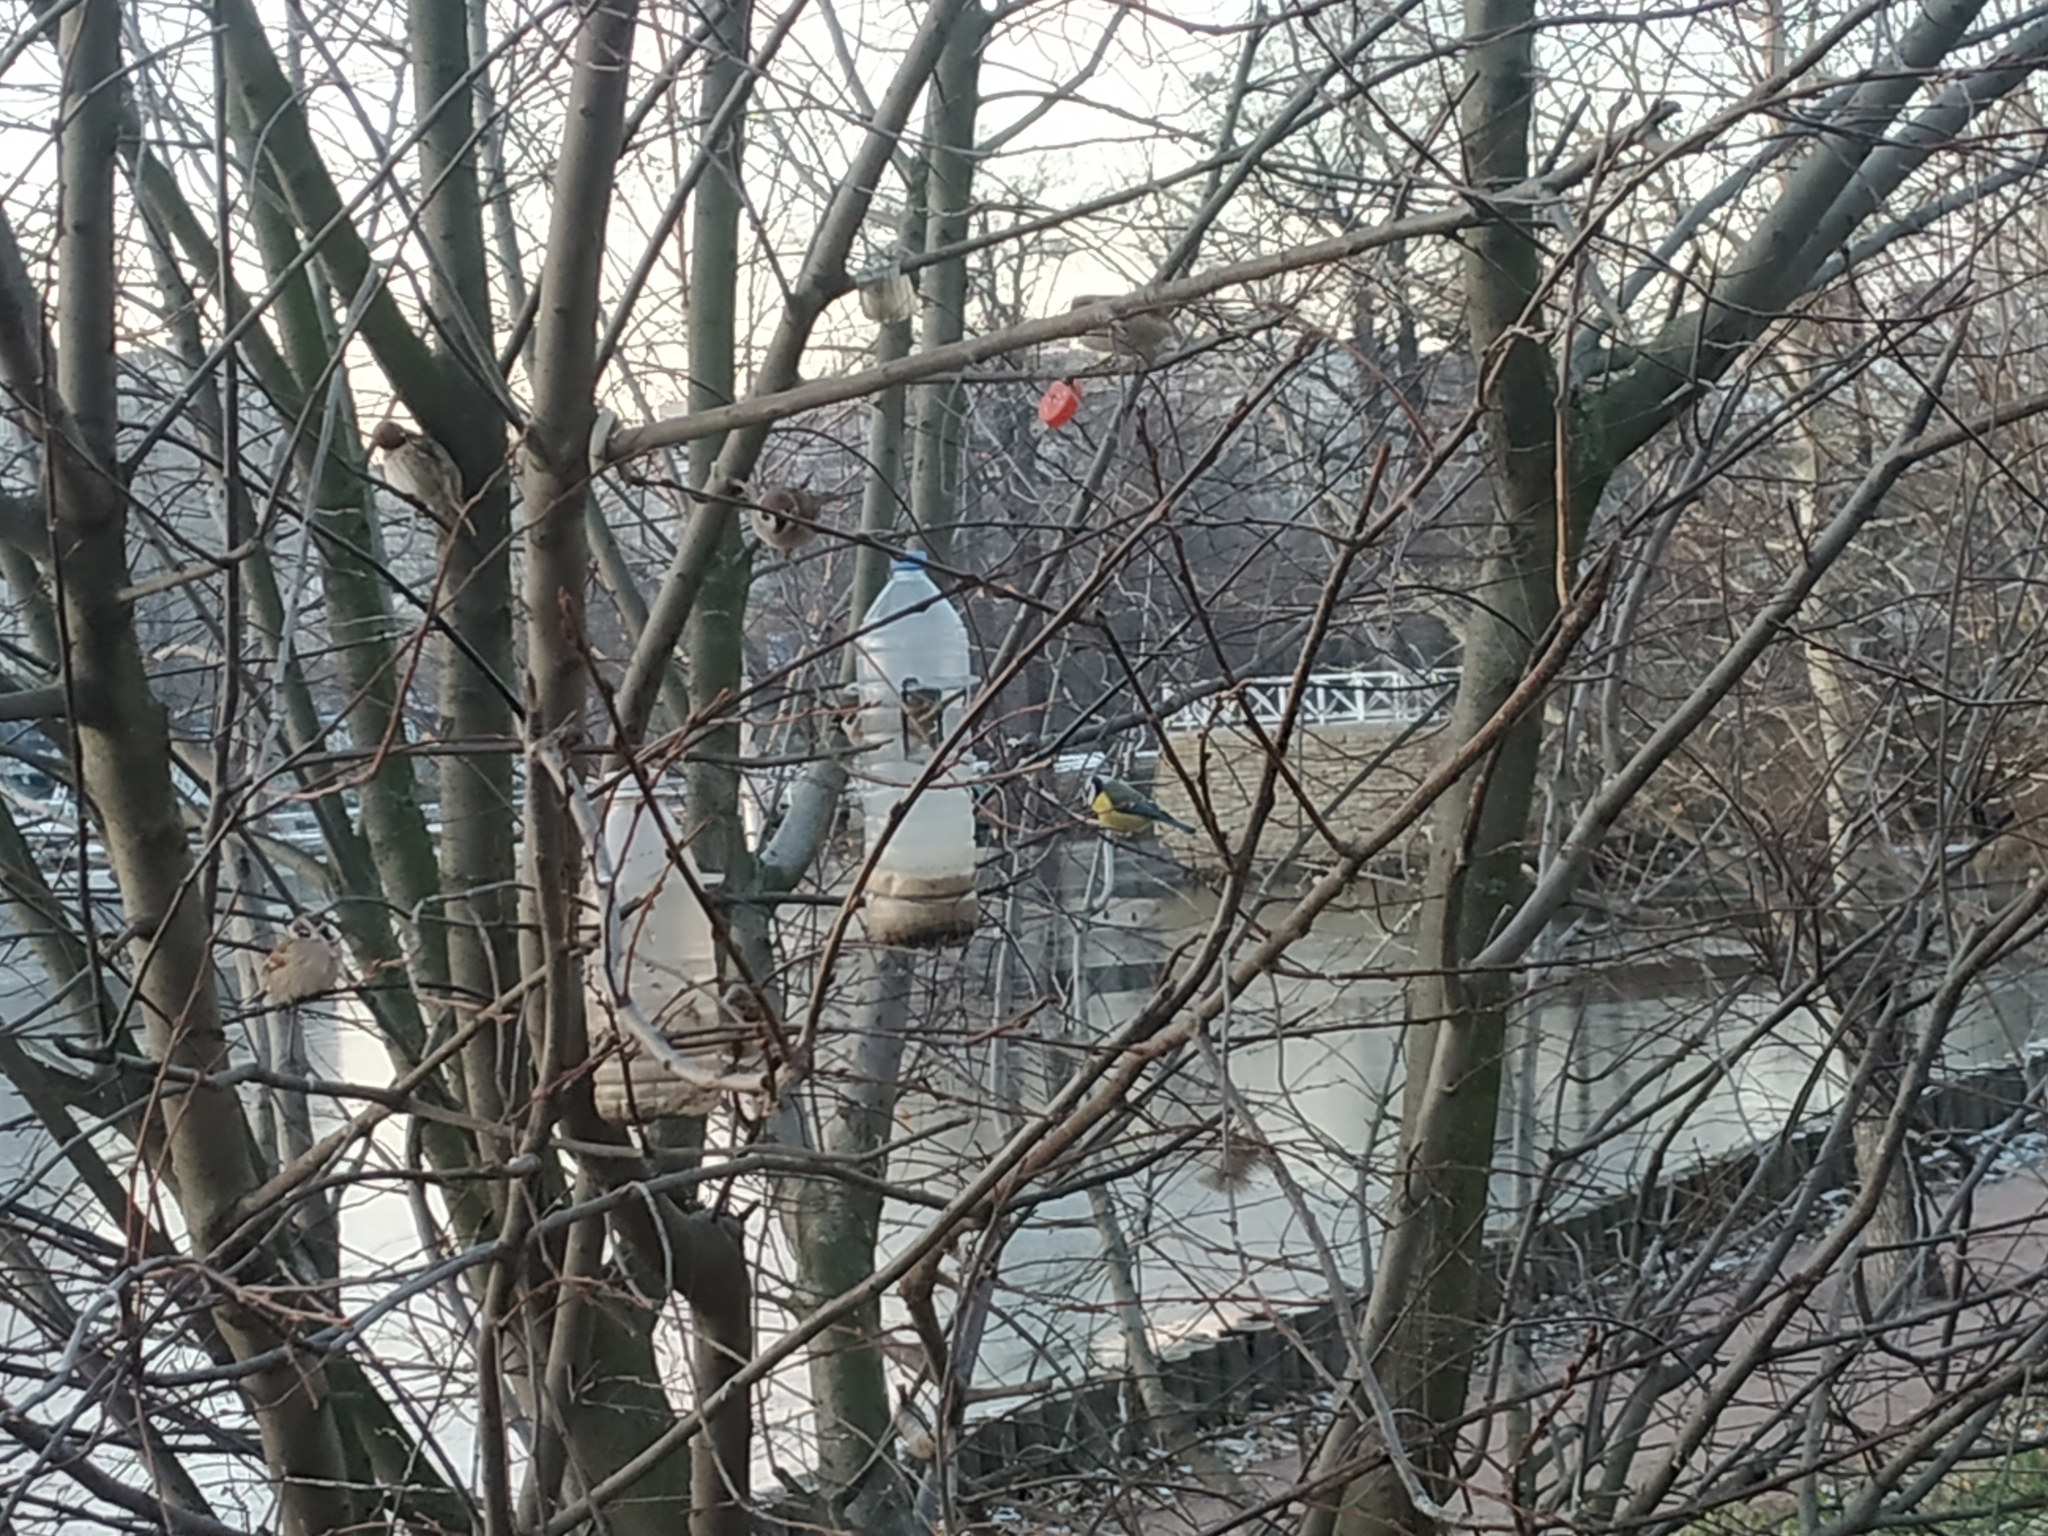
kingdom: Animalia
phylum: Chordata
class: Aves
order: Passeriformes
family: Paridae
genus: Cyanistes
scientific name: Cyanistes caeruleus
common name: Eurasian blue tit
